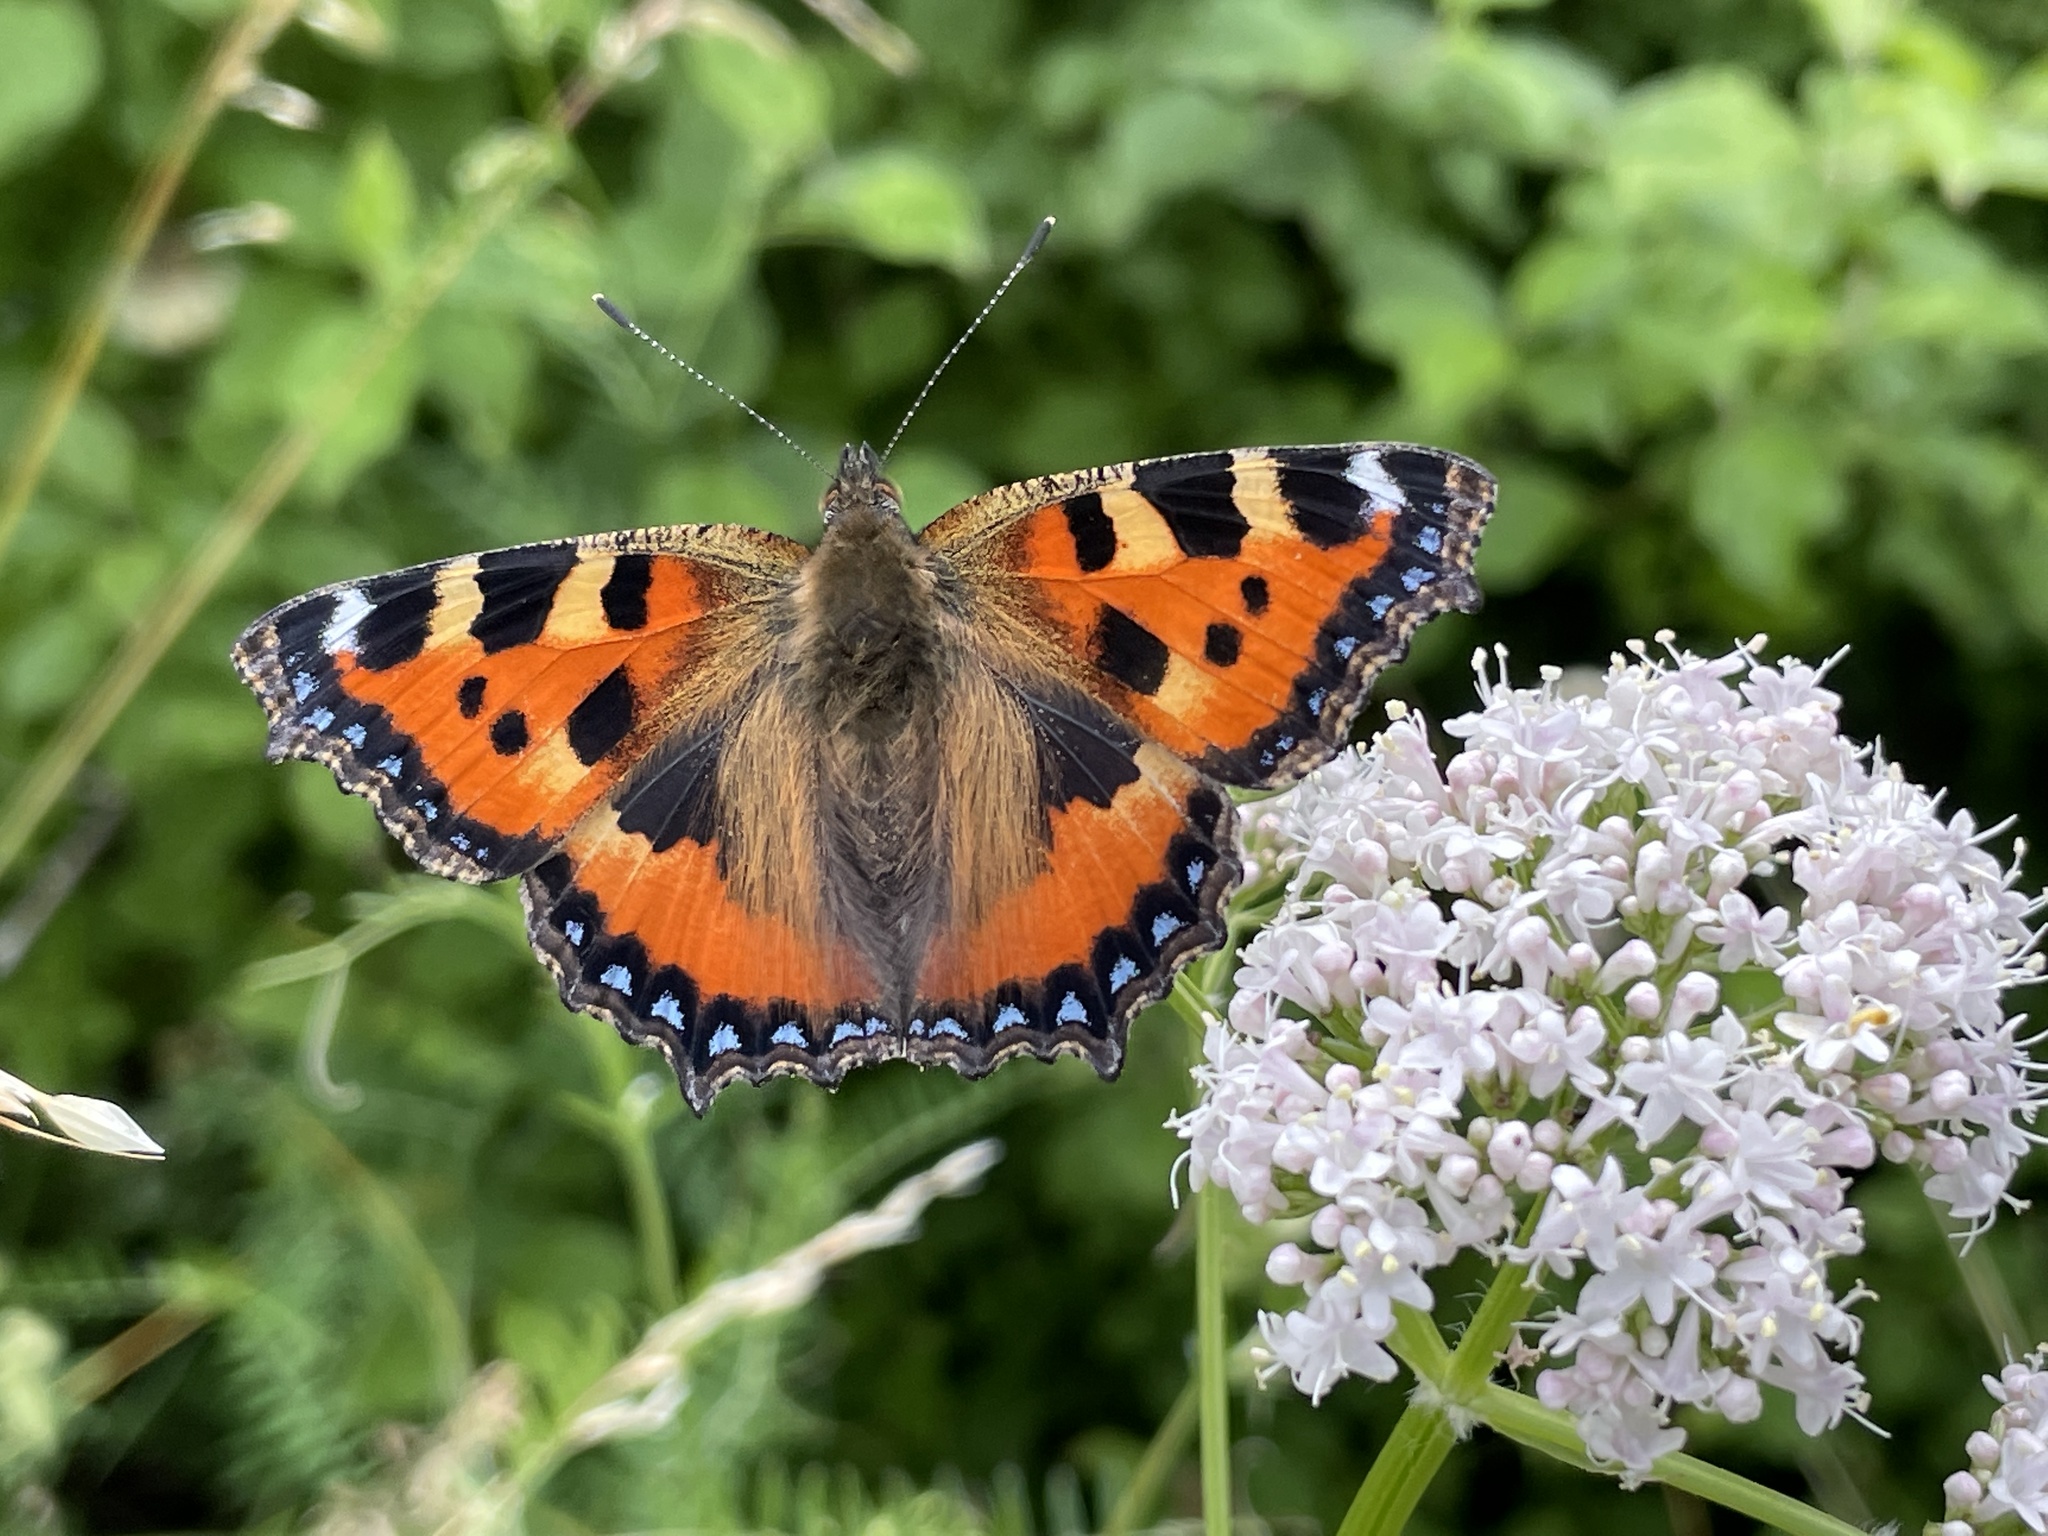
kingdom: Animalia
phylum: Arthropoda
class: Insecta
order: Lepidoptera
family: Nymphalidae
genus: Aglais
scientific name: Aglais urticae
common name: Small tortoiseshell
